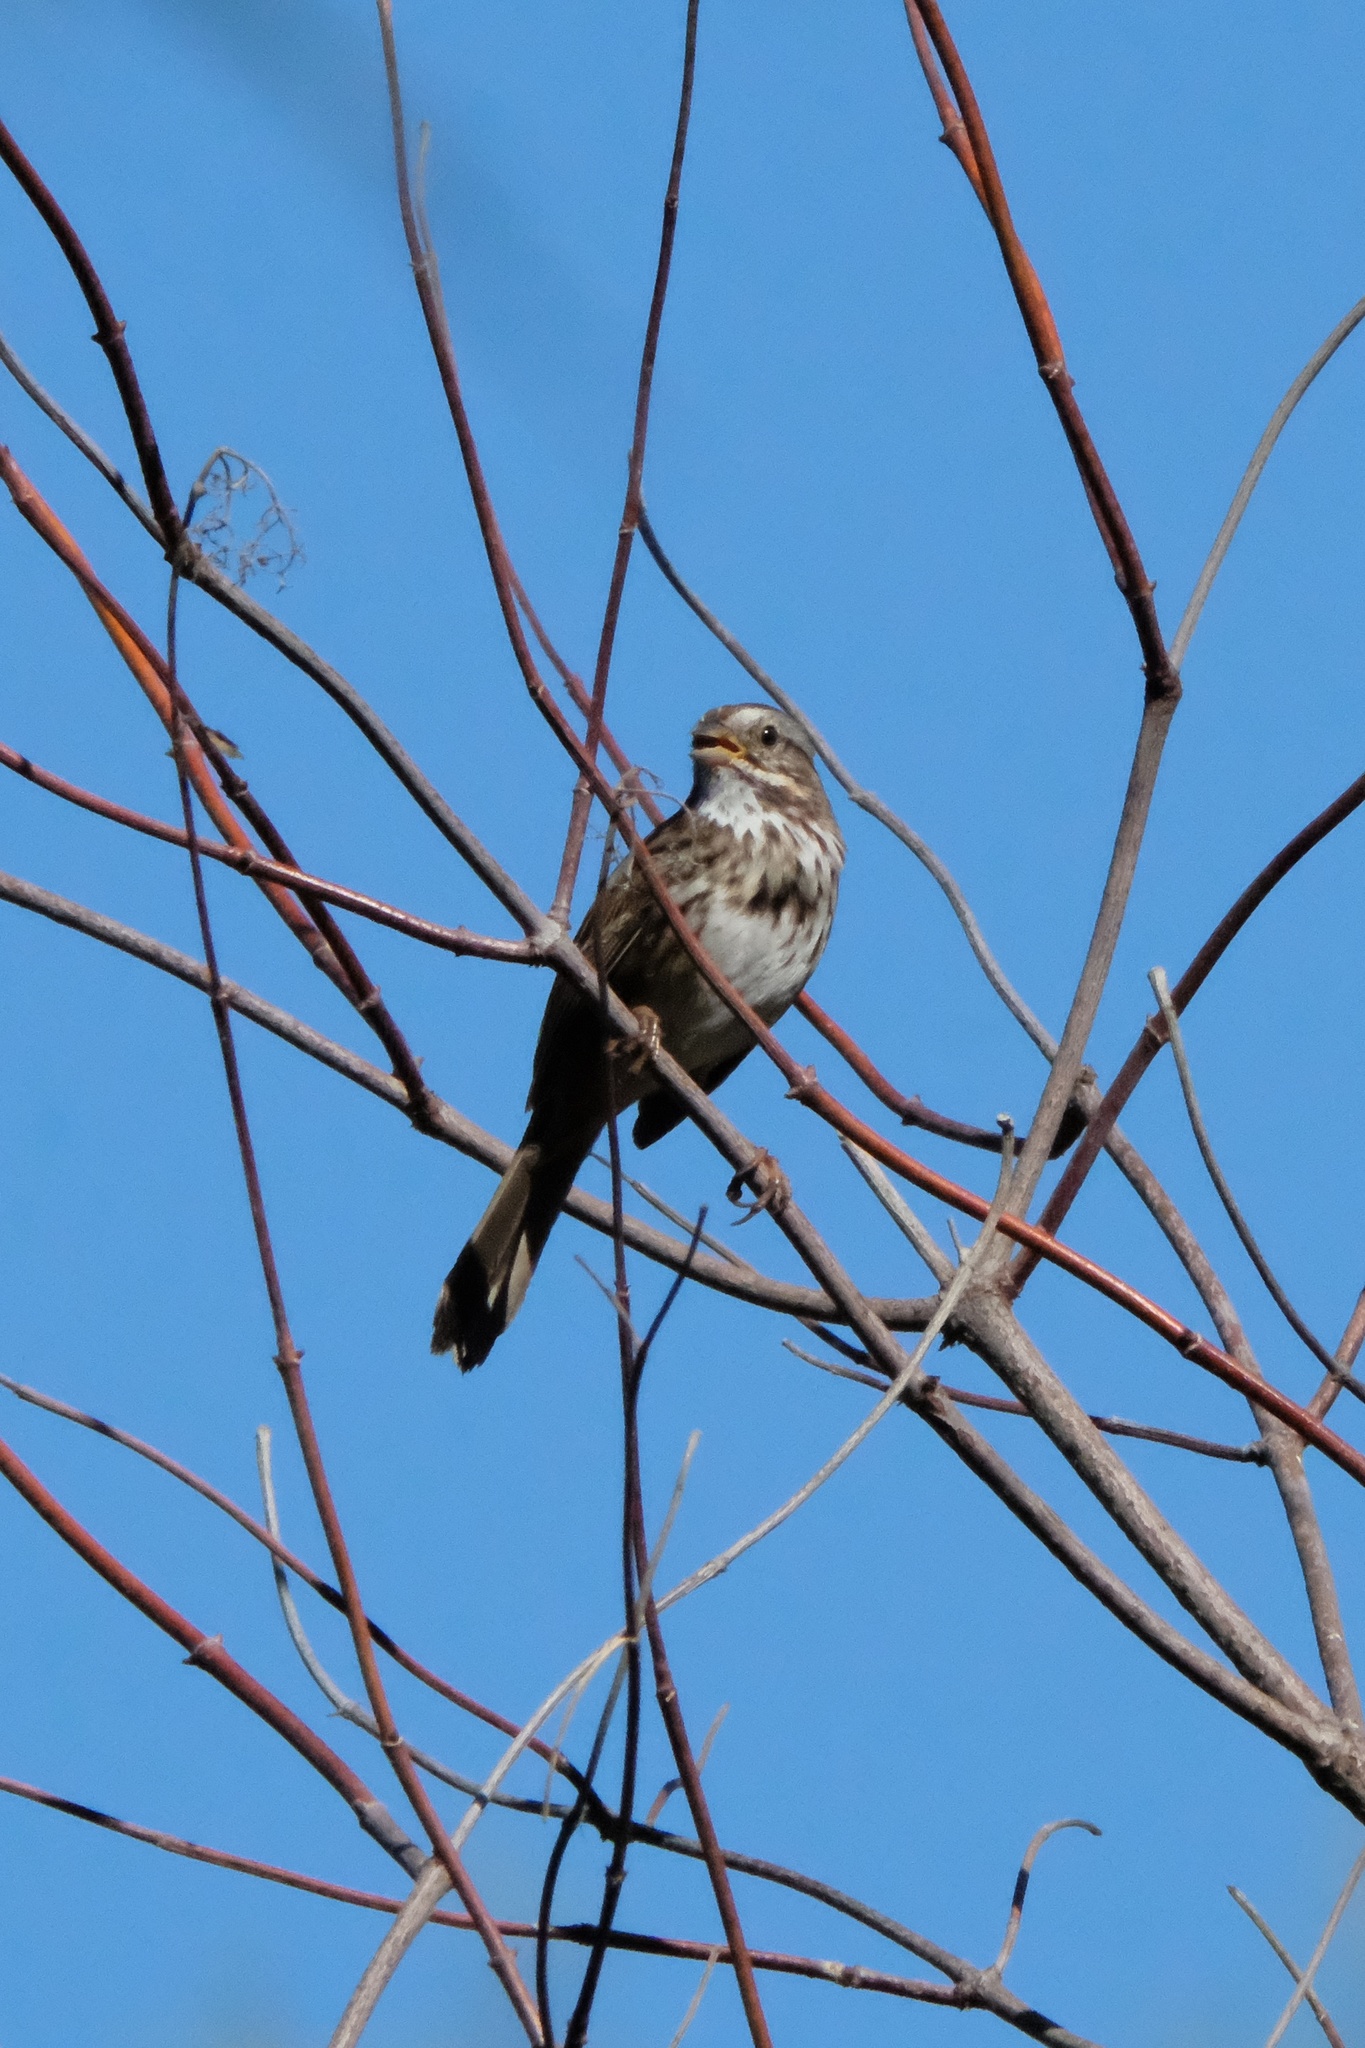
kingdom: Animalia
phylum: Chordata
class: Aves
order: Passeriformes
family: Passerellidae
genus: Melospiza
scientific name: Melospiza melodia
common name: Song sparrow
